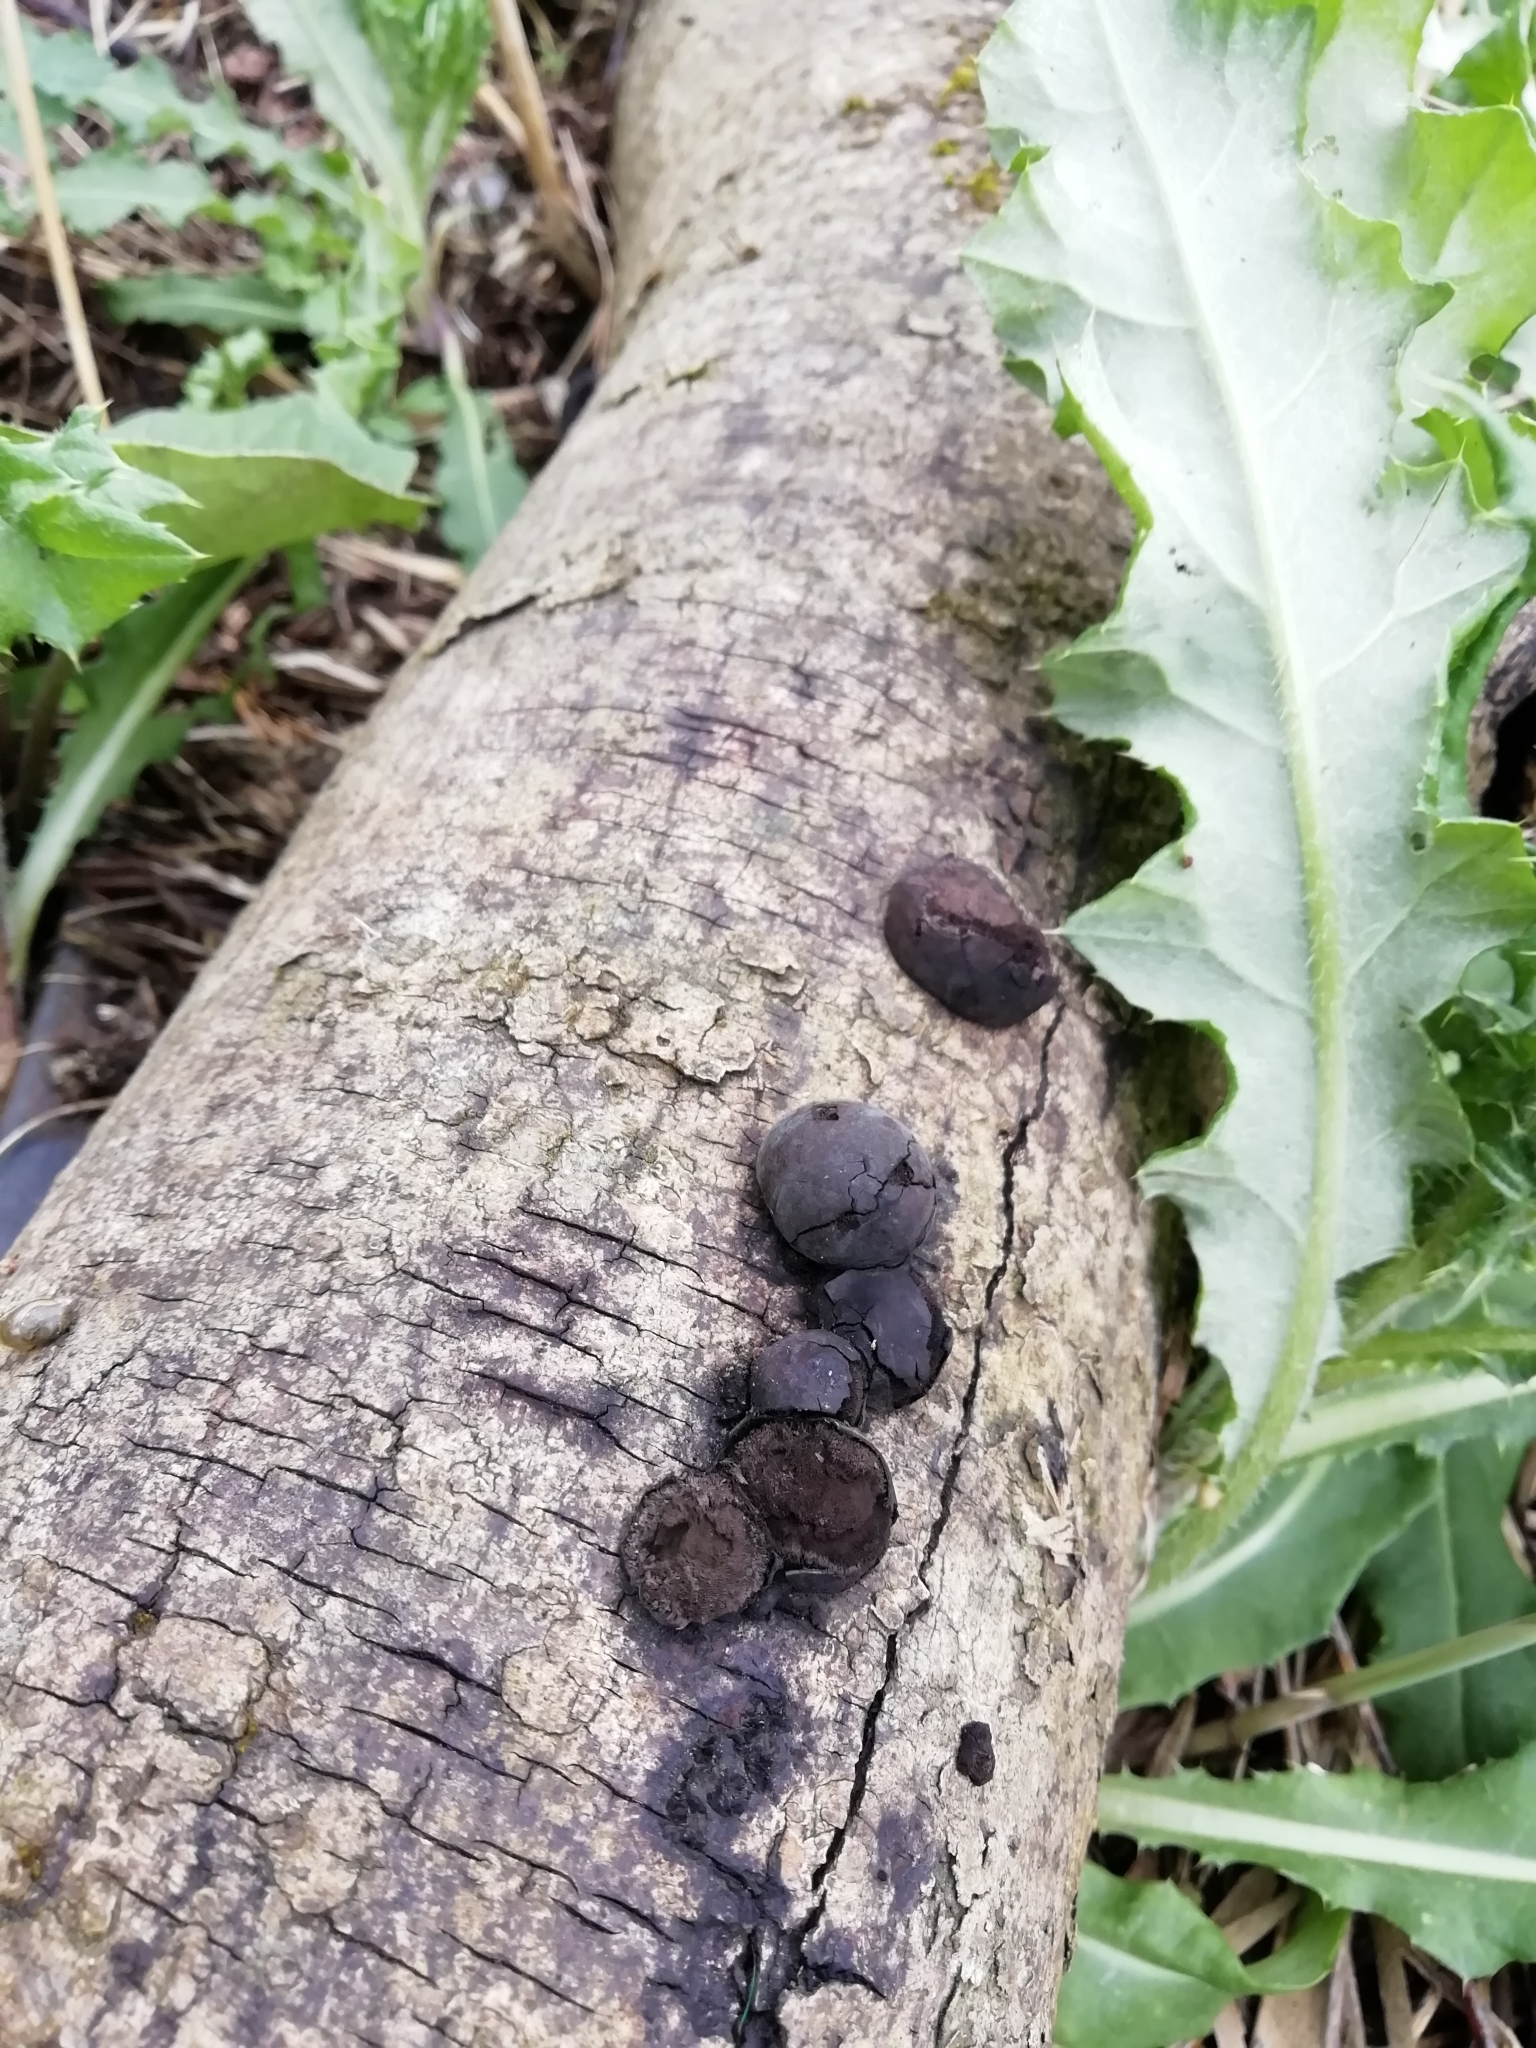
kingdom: Fungi
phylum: Ascomycota
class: Sordariomycetes
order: Xylariales
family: Hypoxylaceae
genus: Daldinia
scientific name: Daldinia concentrica
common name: Cramp balls
